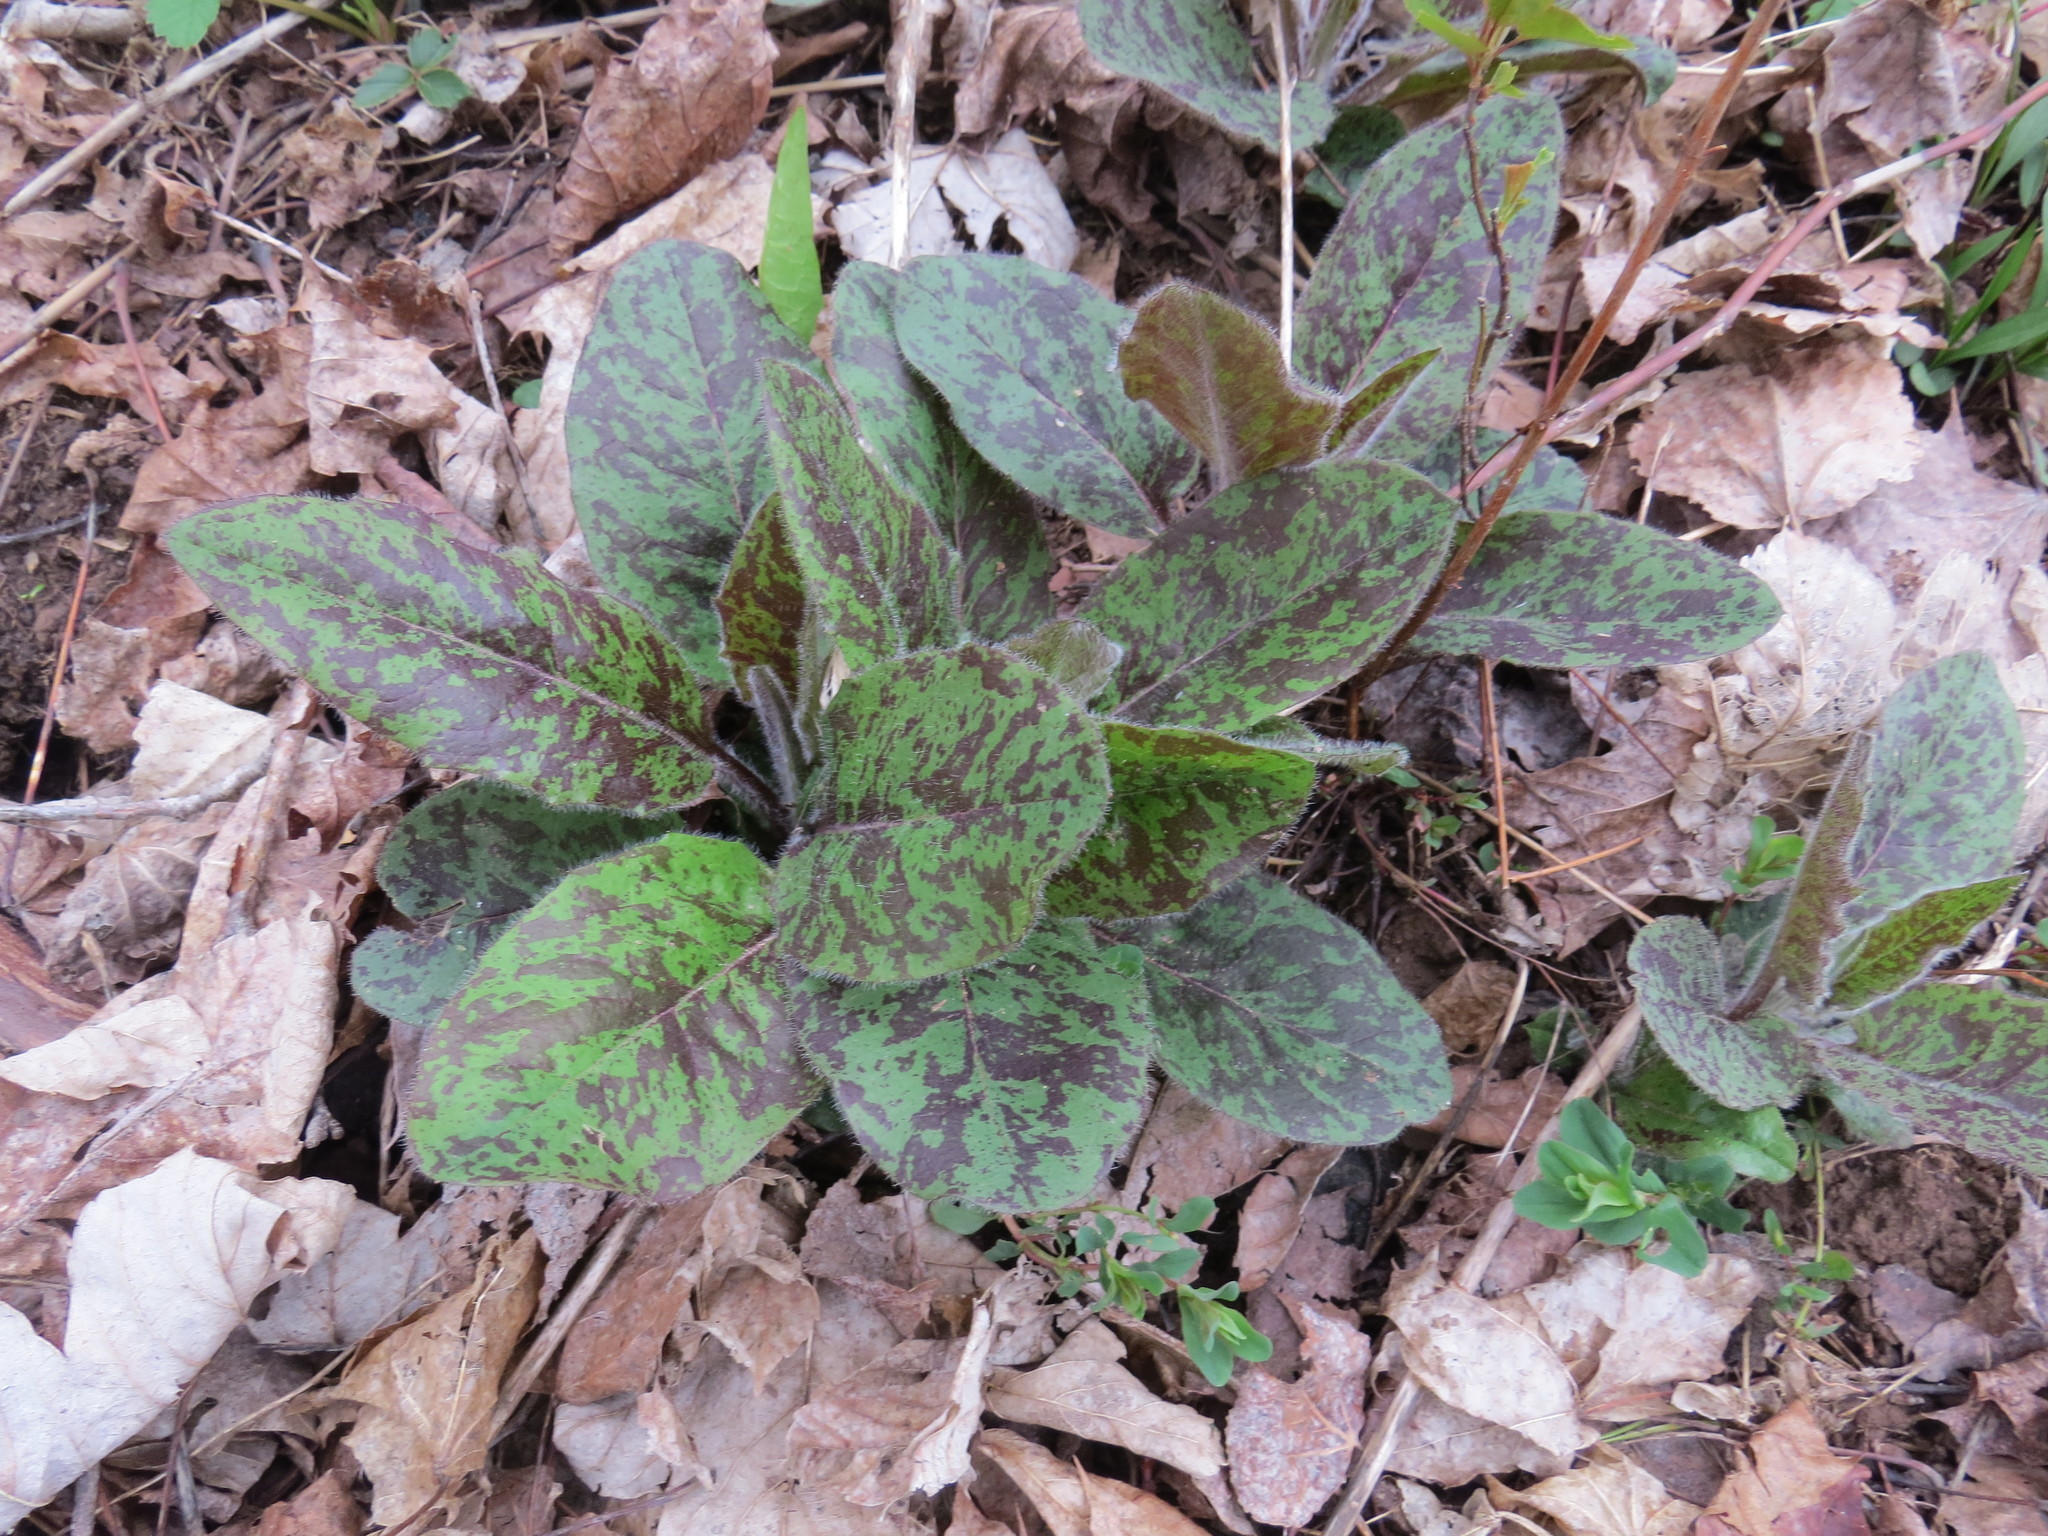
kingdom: Plantae
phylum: Tracheophyta
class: Magnoliopsida
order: Asterales
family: Asteraceae
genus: Hieracium
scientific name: Hieracium maculatum
